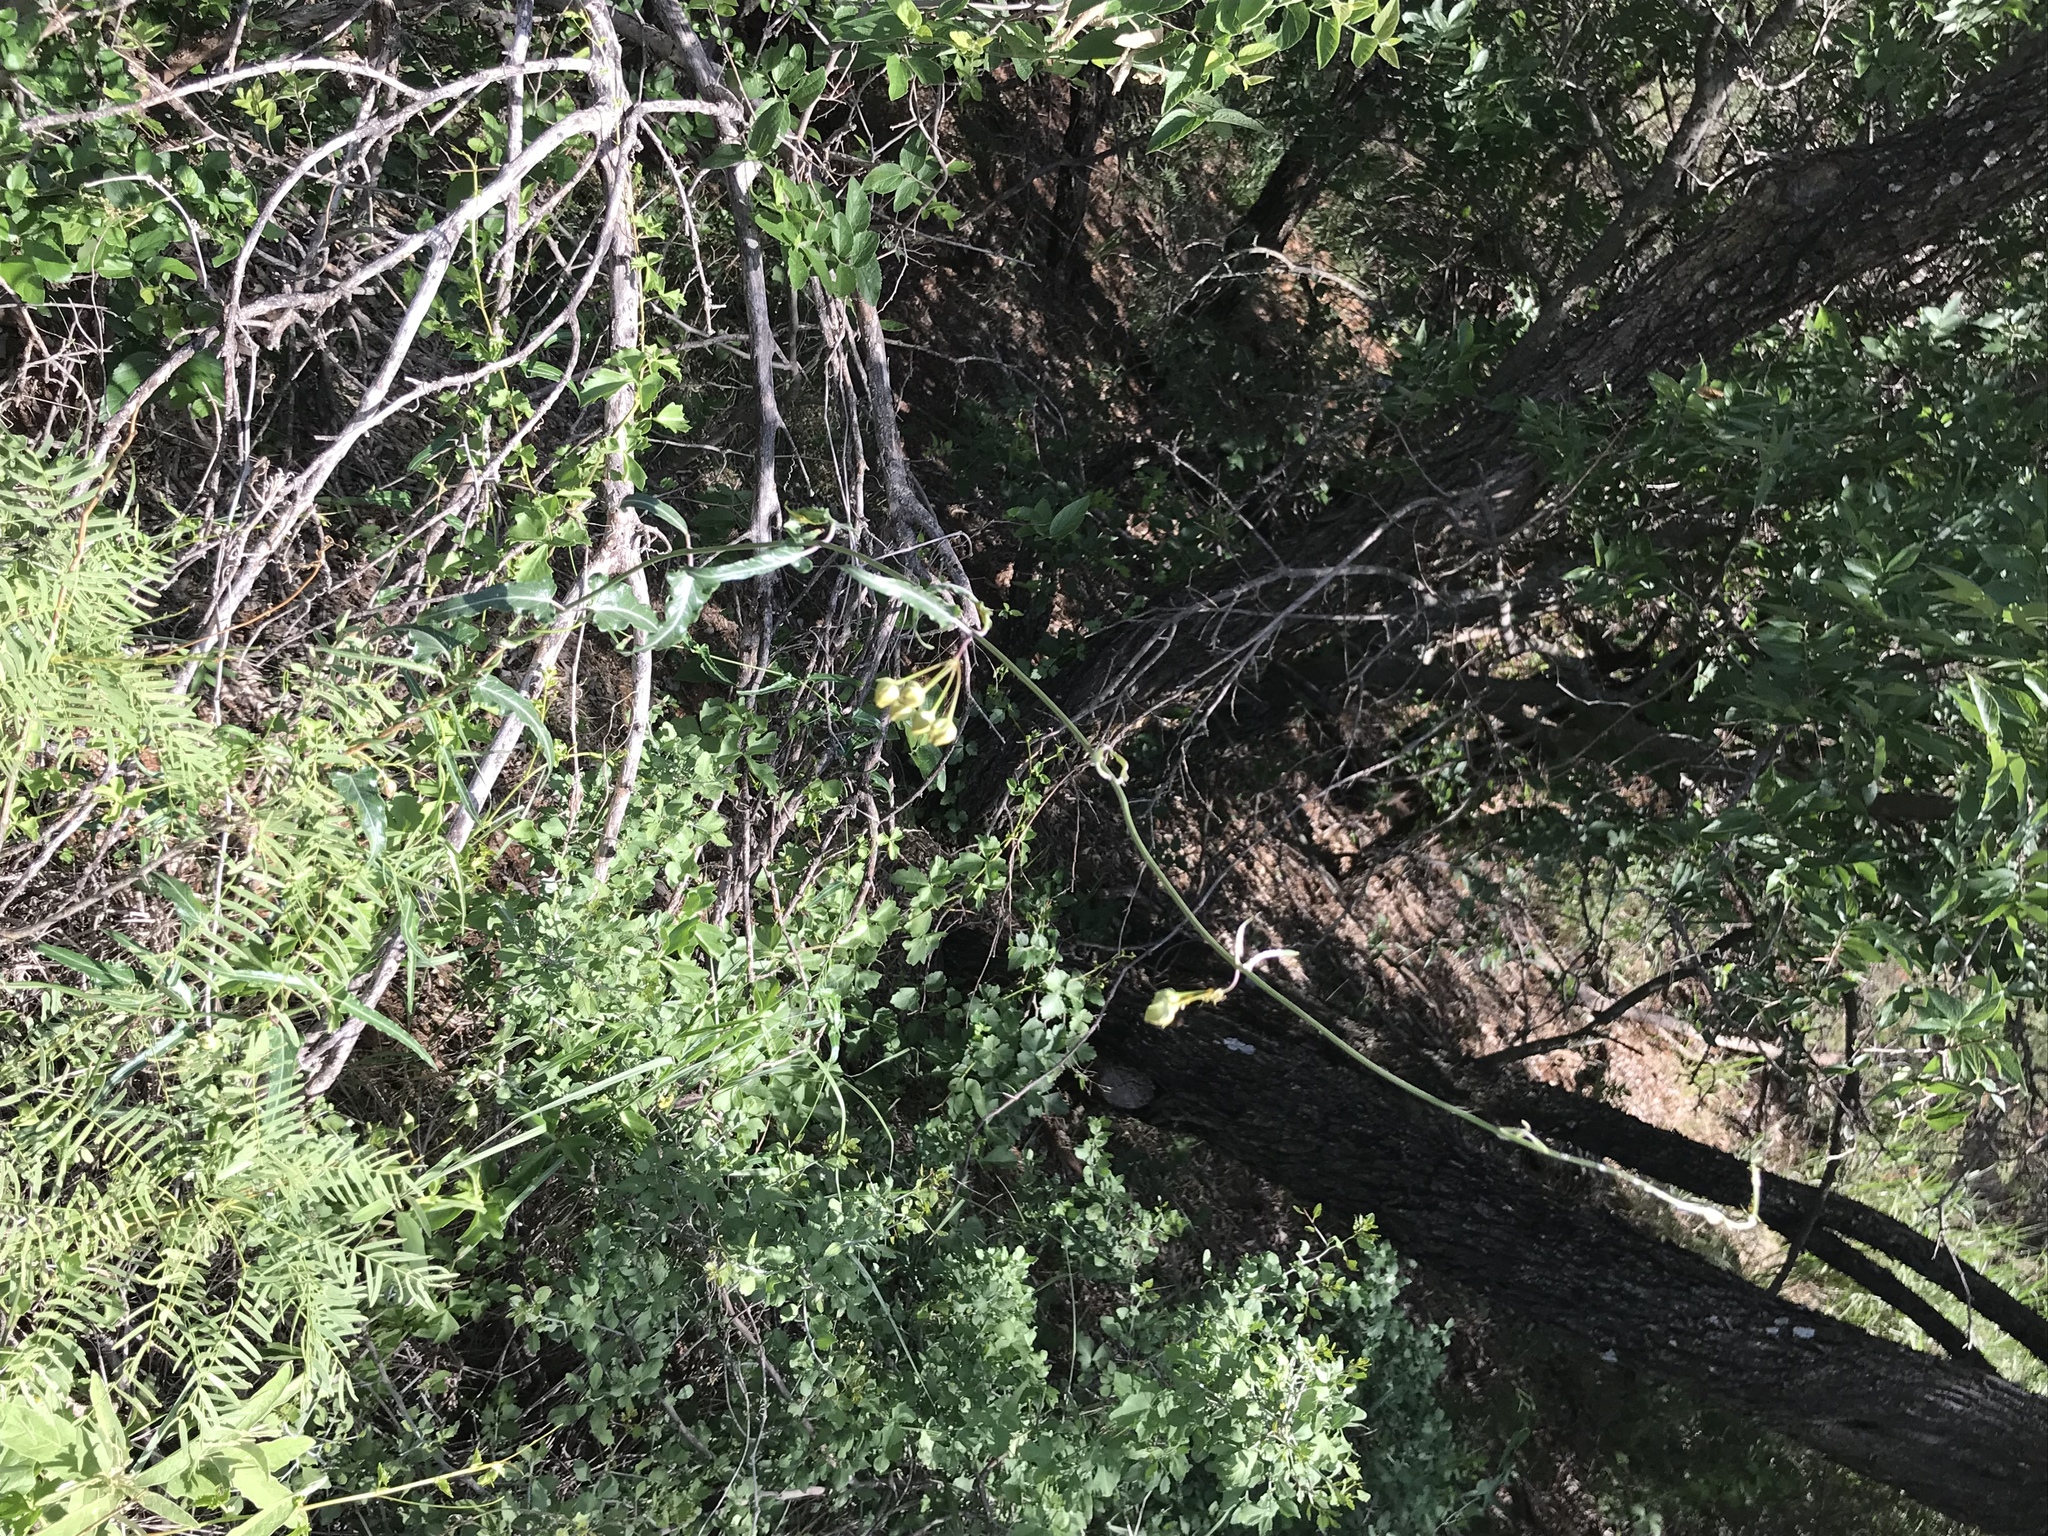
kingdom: Plantae
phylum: Tracheophyta
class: Magnoliopsida
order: Gentianales
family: Apocynaceae
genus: Funastrum
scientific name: Funastrum crispum
